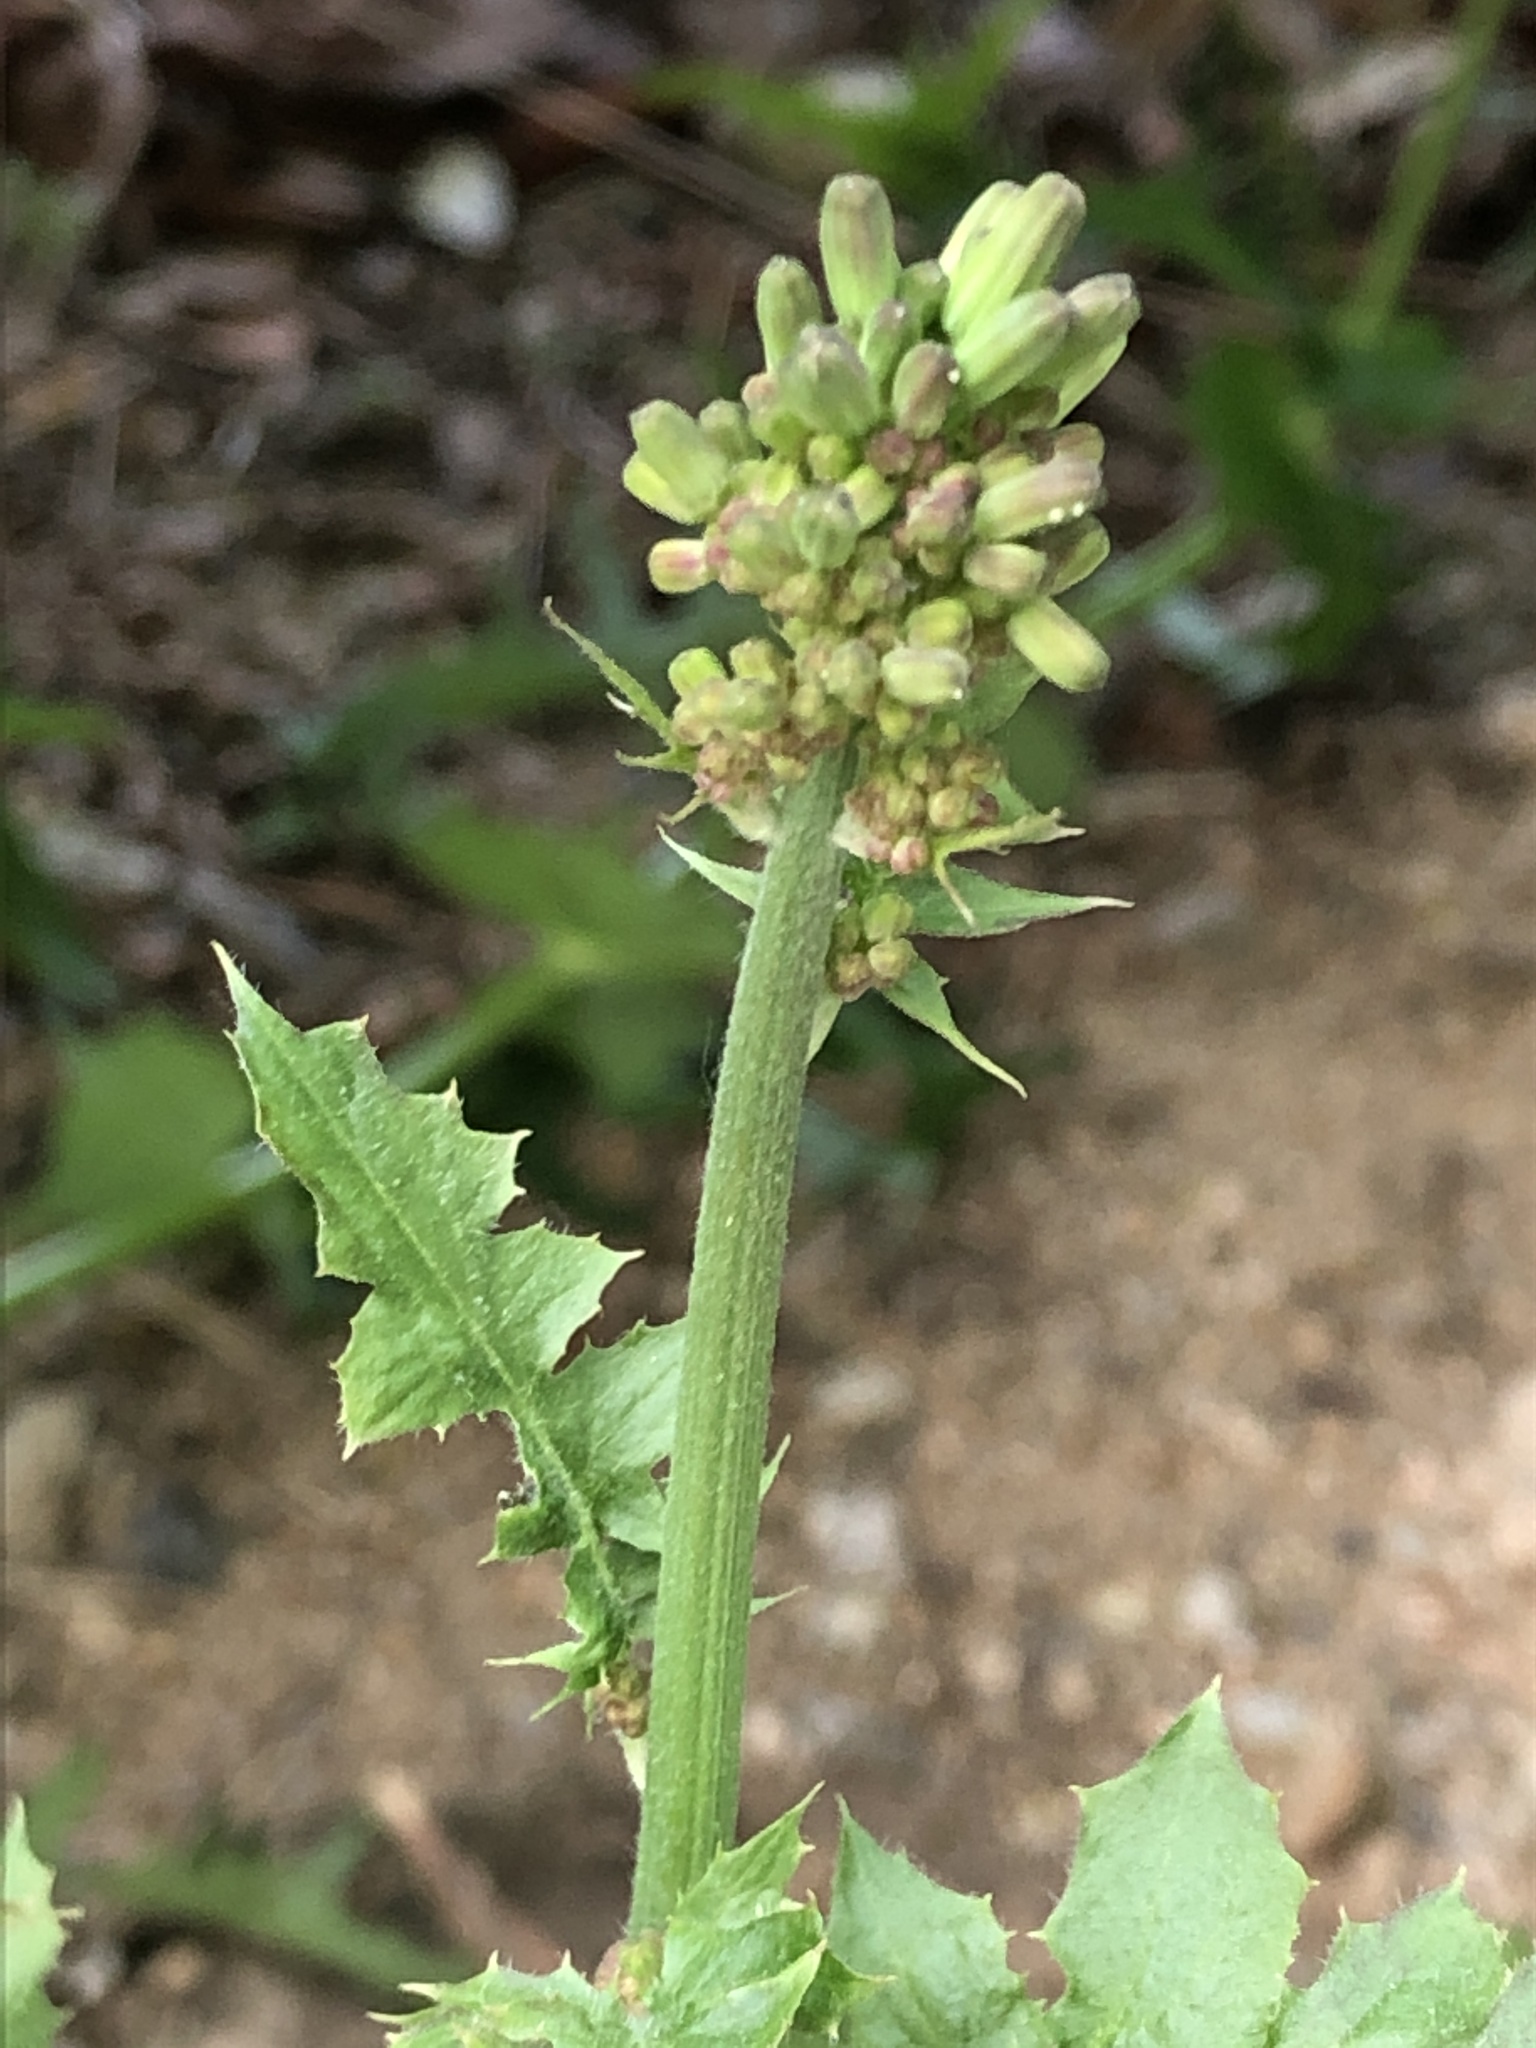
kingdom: Plantae
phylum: Tracheophyta
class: Magnoliopsida
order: Asterales
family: Asteraceae
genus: Youngia
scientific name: Youngia japonica
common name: Oriental false hawksbeard
